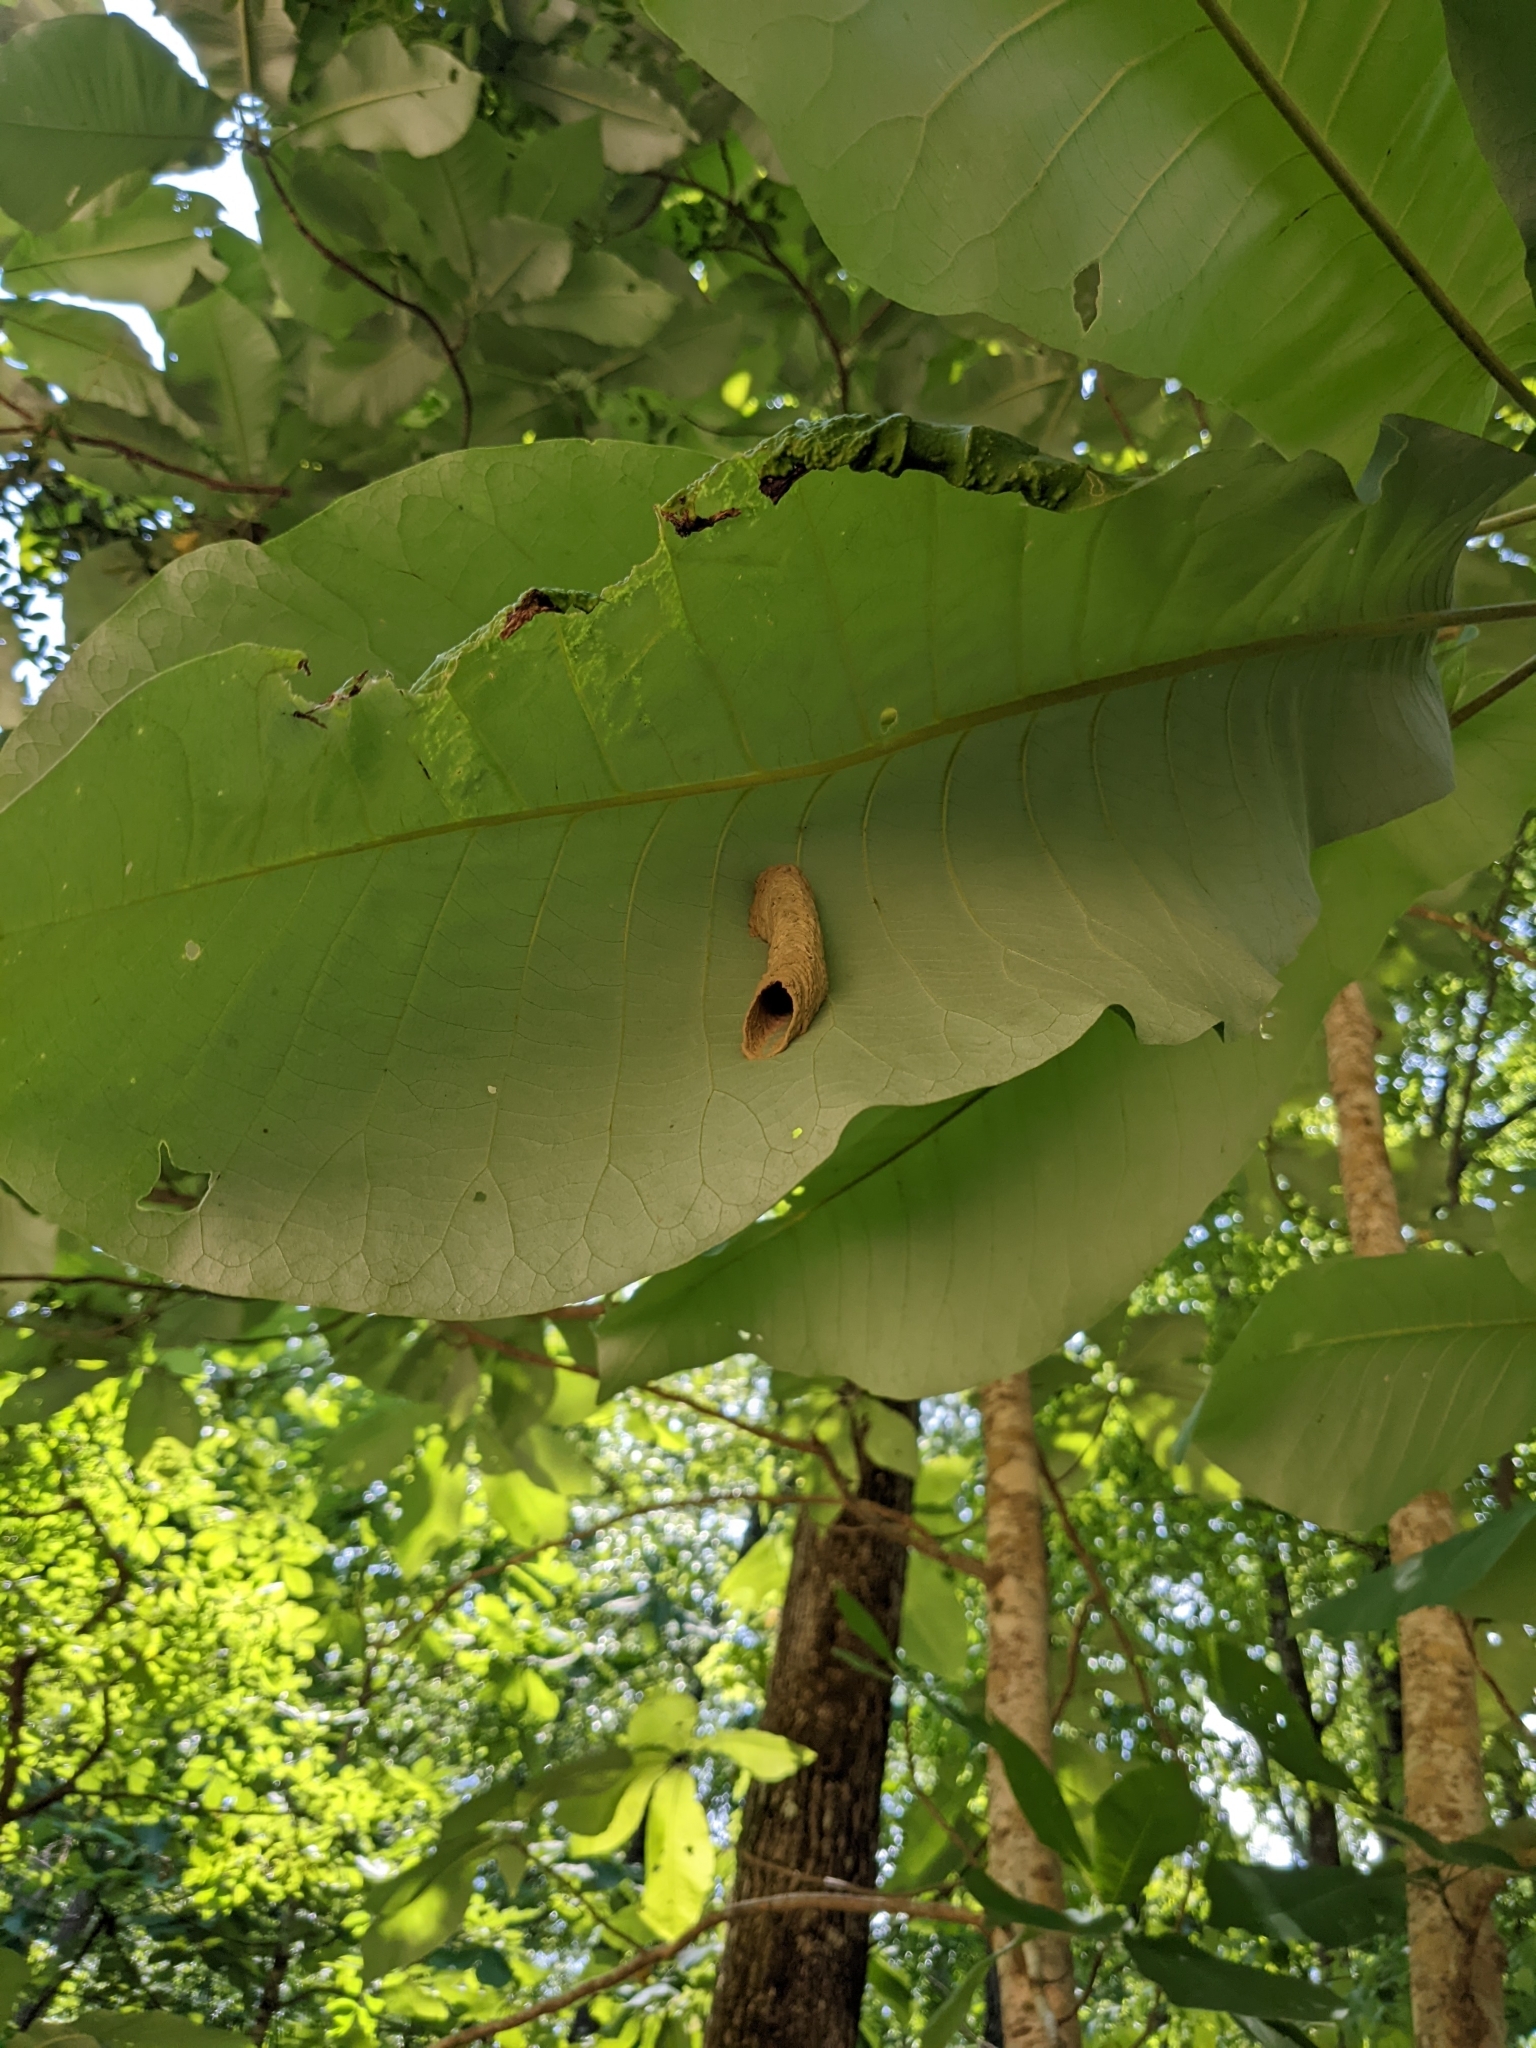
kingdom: Plantae
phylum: Tracheophyta
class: Magnoliopsida
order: Magnoliales
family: Magnoliaceae
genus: Magnolia
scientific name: Magnolia macrophylla
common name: Big-leaf magnolia
